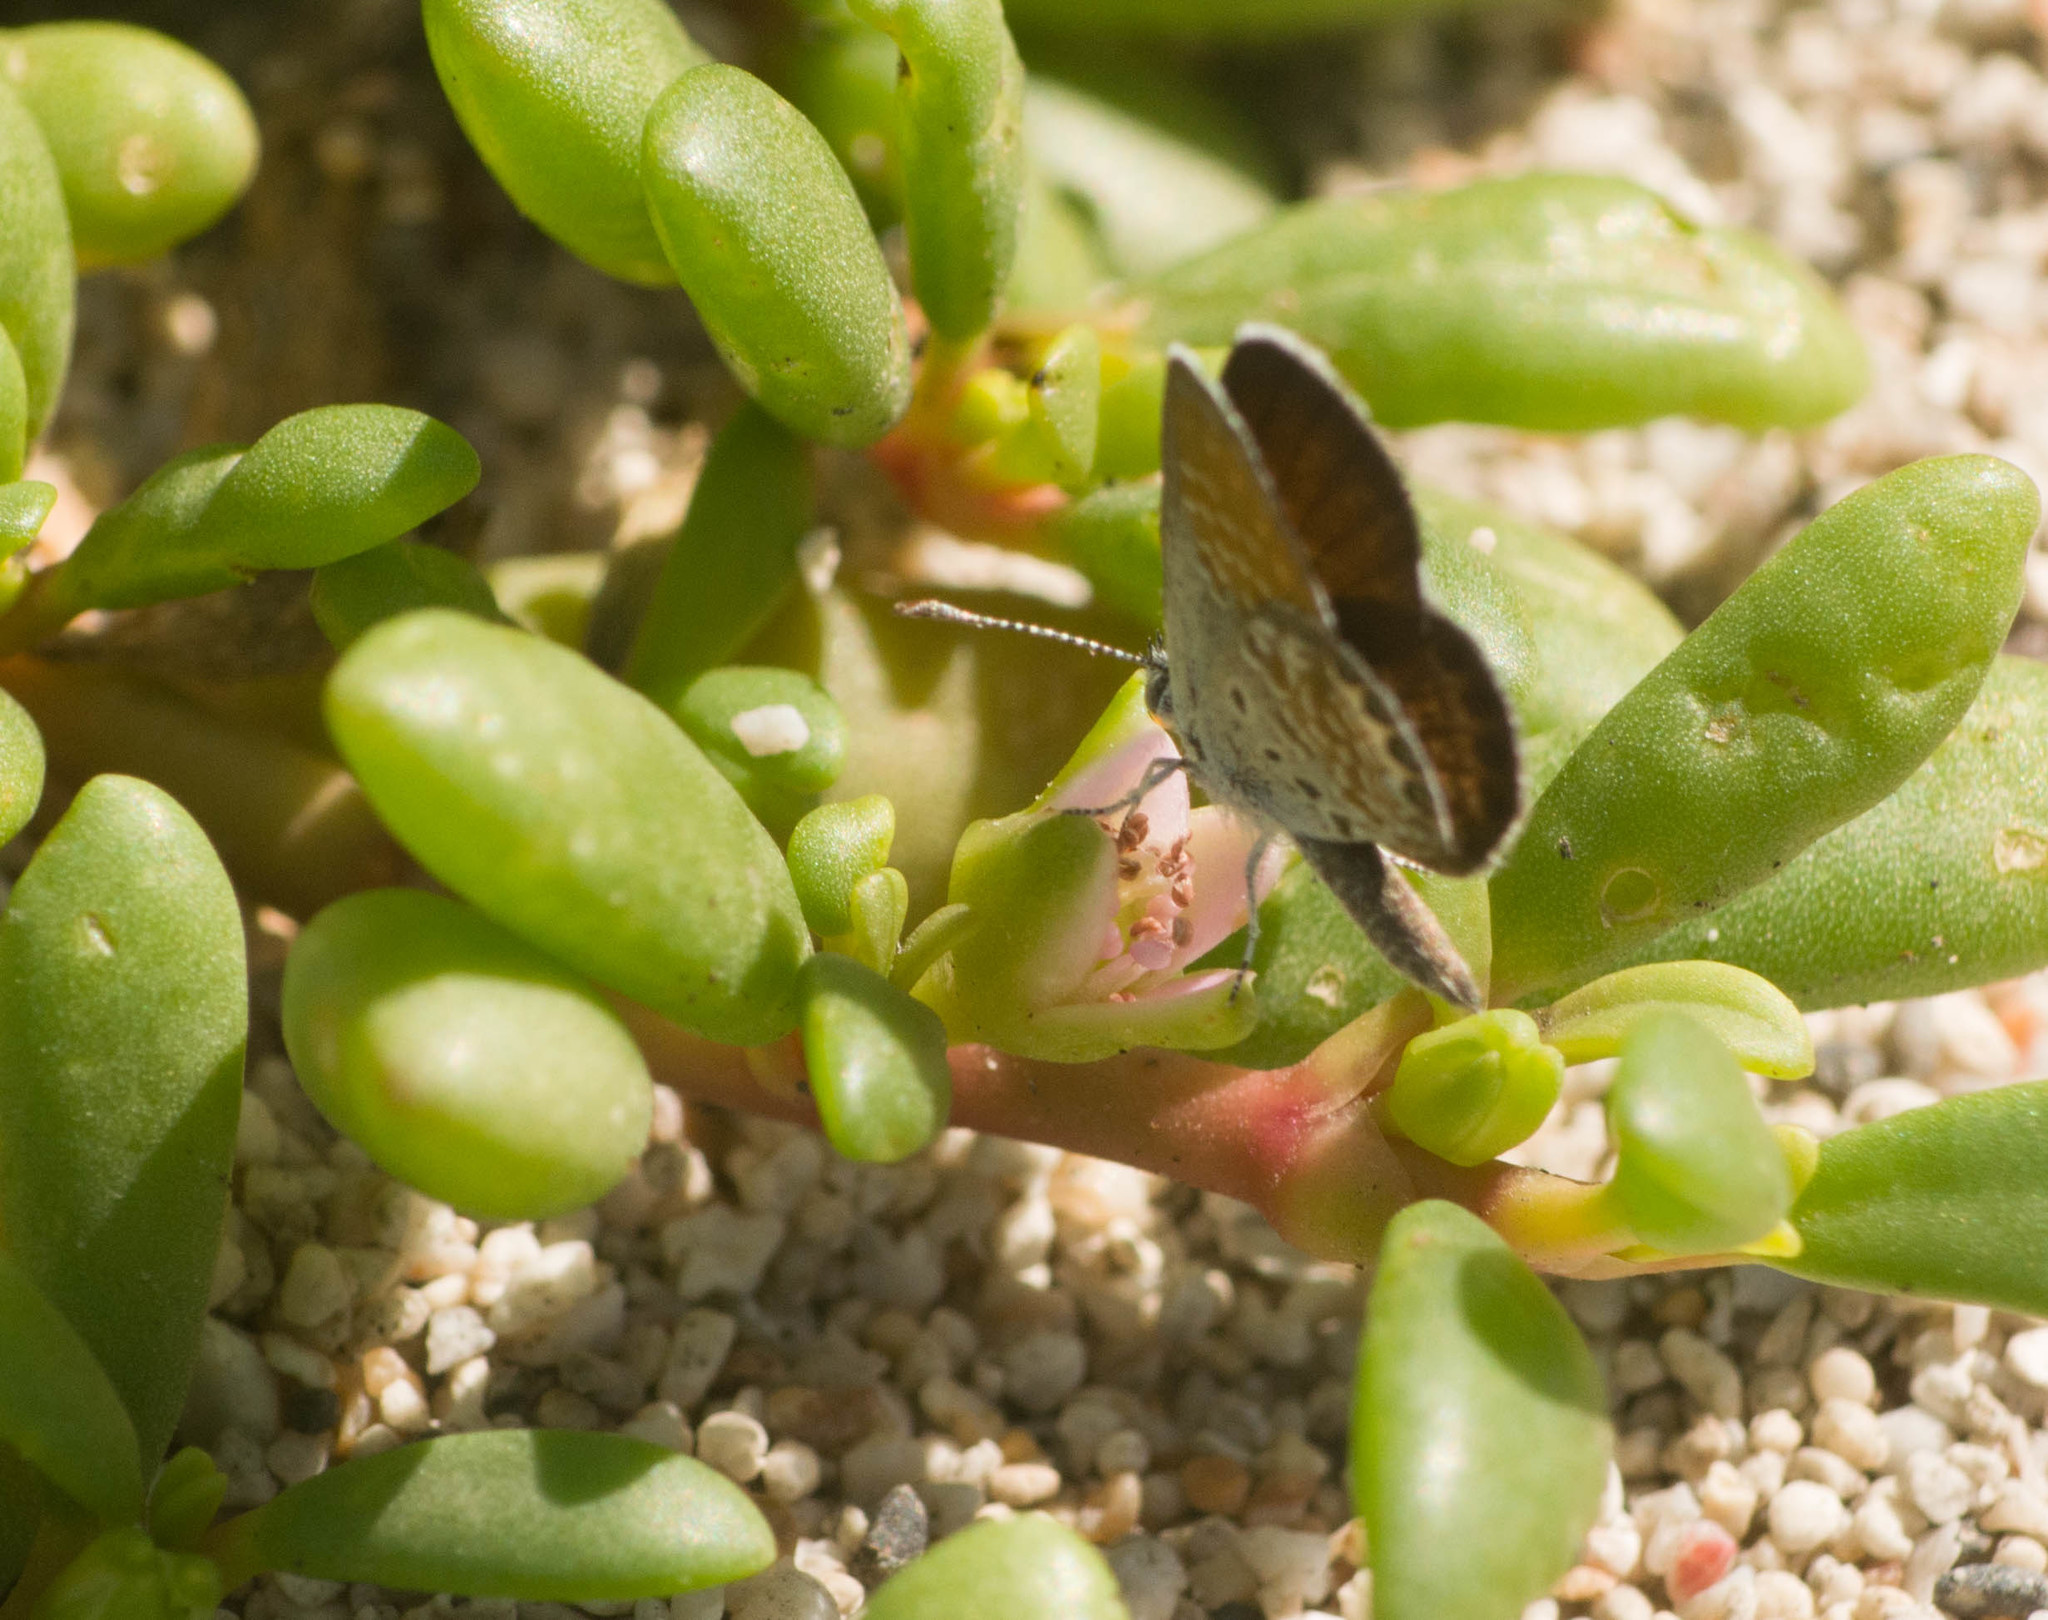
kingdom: Animalia
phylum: Arthropoda
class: Insecta
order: Lepidoptera
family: Lycaenidae
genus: Brephidium
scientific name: Brephidium exilis
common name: Pygmy blue
